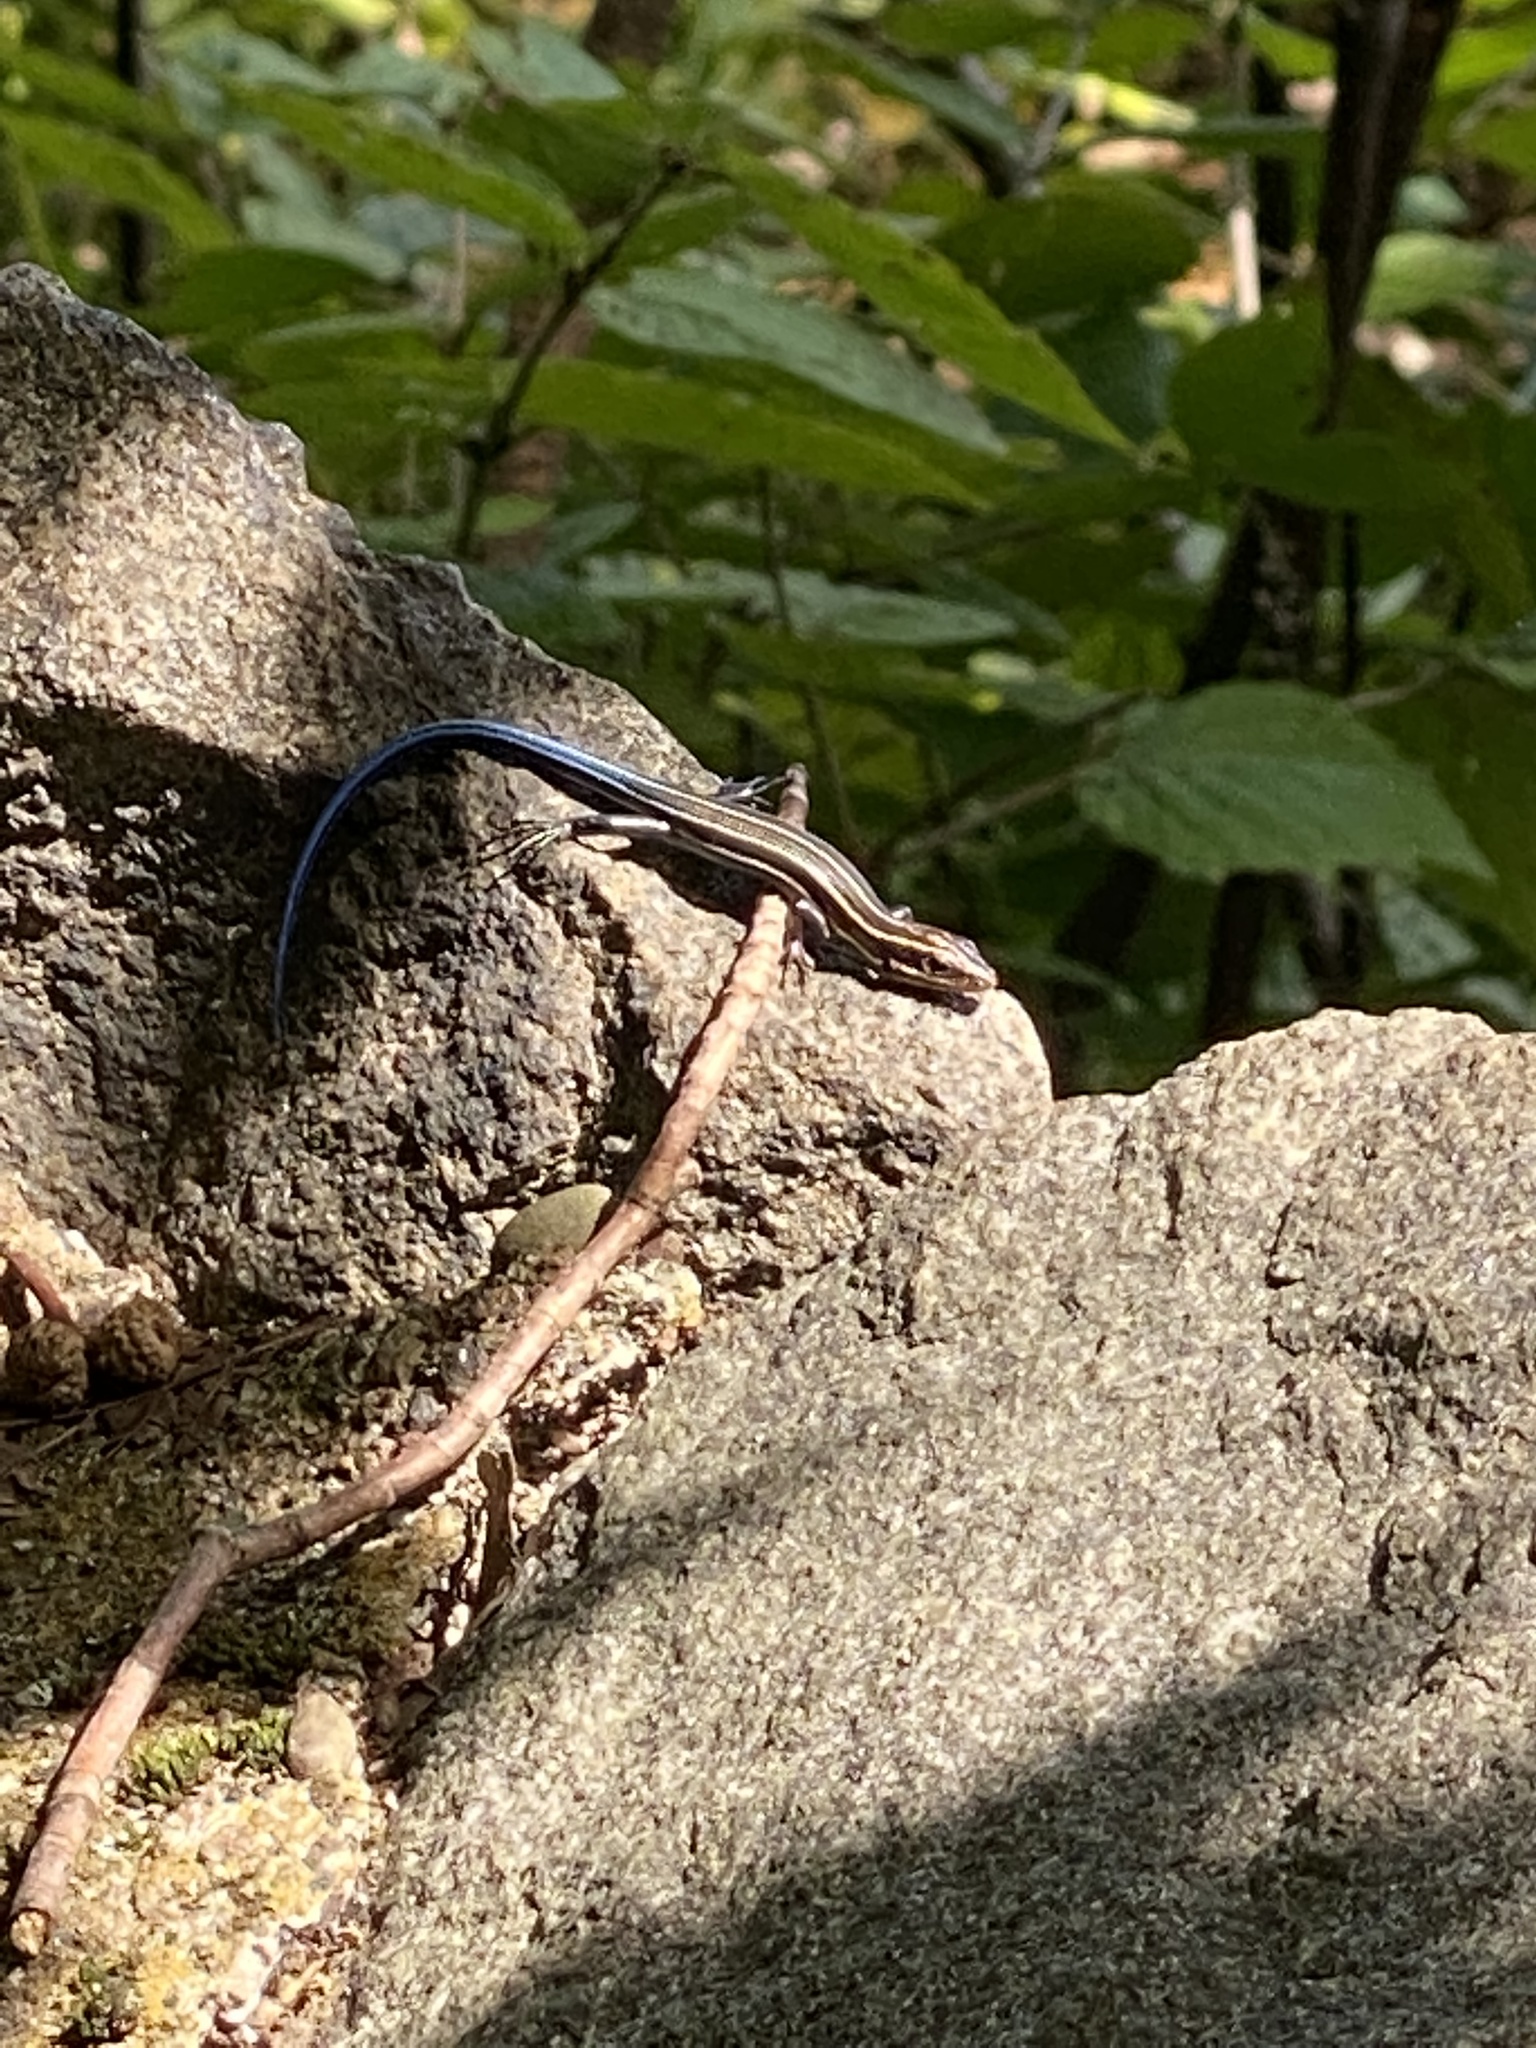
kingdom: Animalia
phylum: Chordata
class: Squamata
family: Scincidae
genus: Plestiodon
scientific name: Plestiodon fasciatus
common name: Five-lined skink
